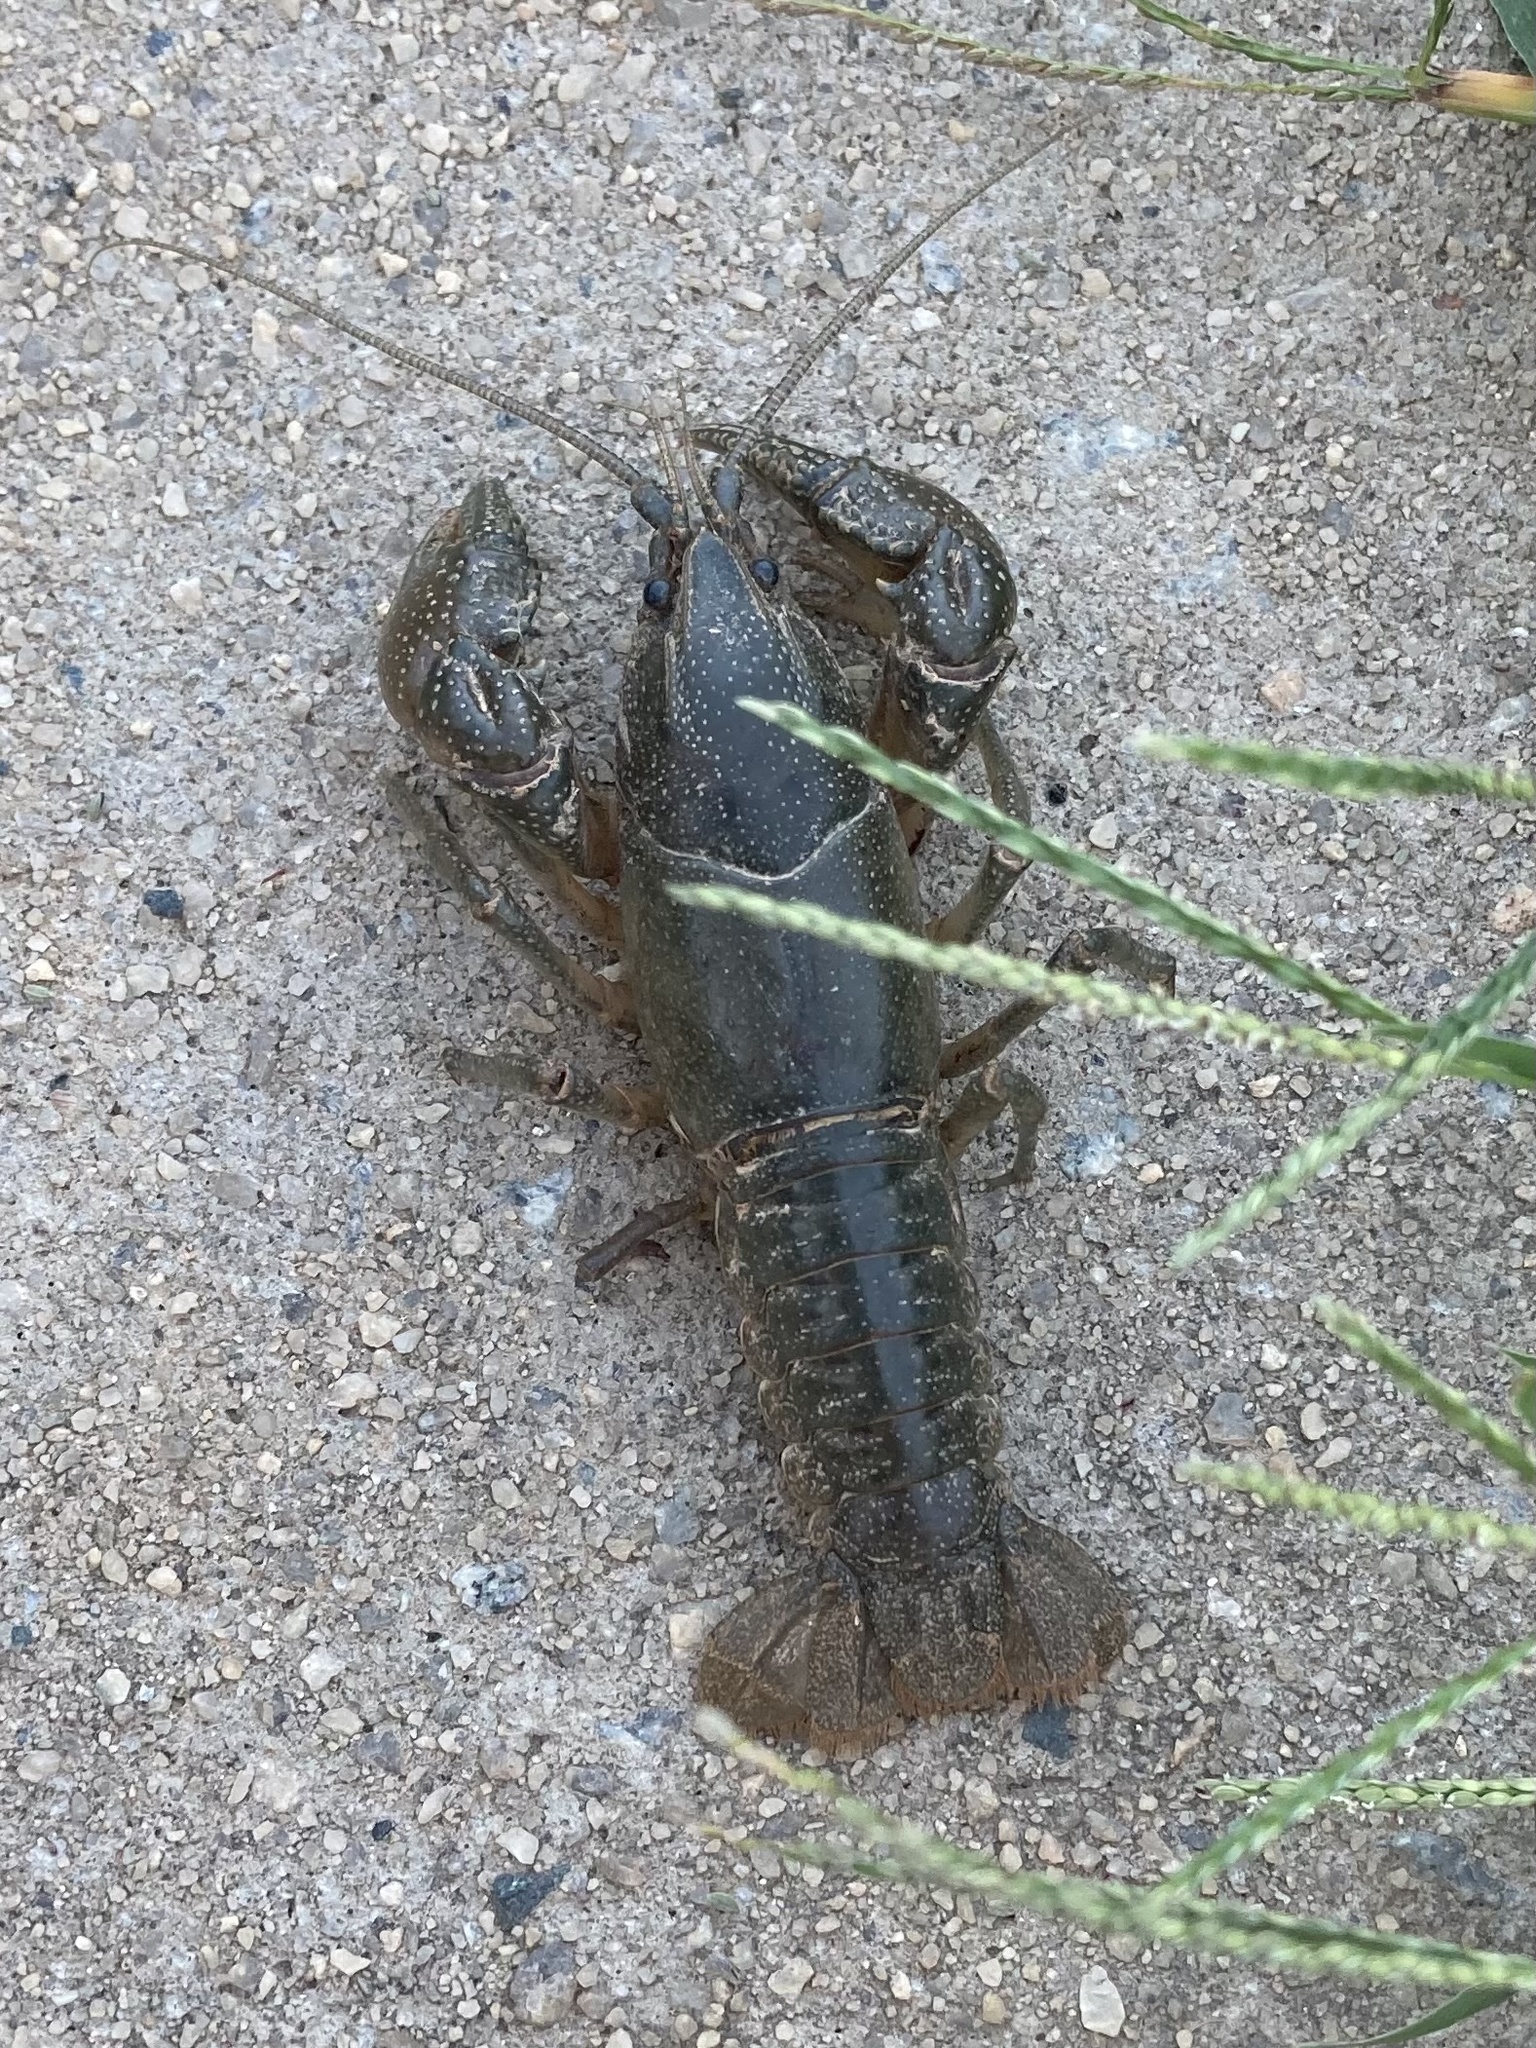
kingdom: Animalia
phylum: Arthropoda
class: Malacostraca
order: Decapoda
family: Cambaridae
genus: Cambarus
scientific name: Cambarus reduncus
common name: Sickle crayfish
